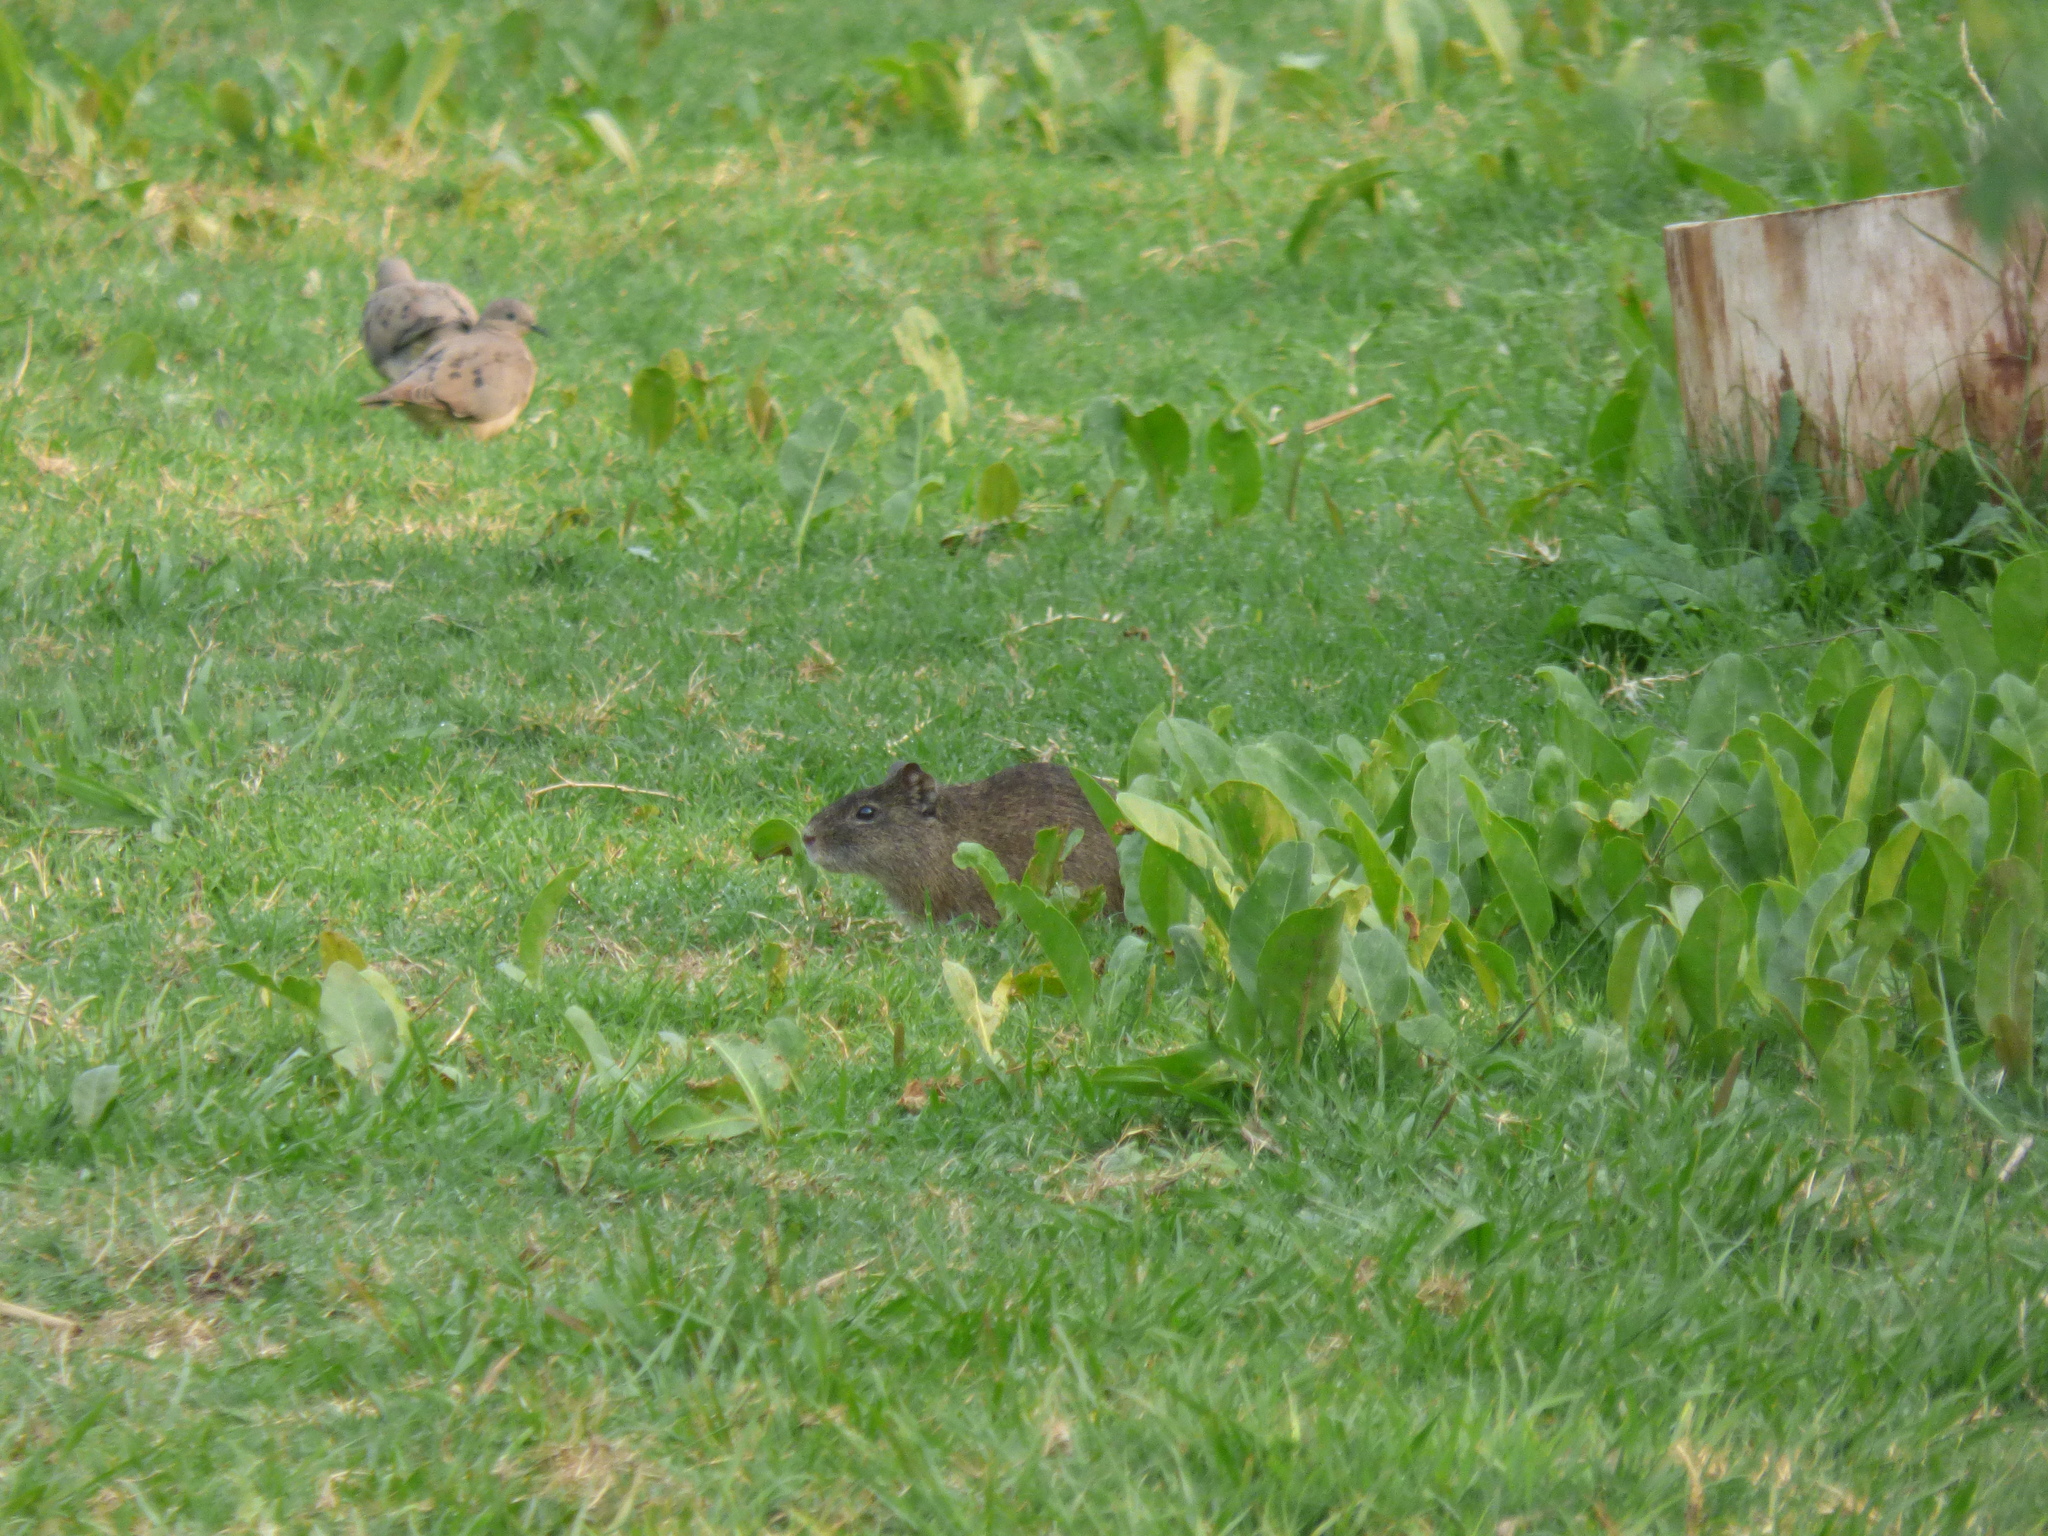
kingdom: Animalia
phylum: Chordata
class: Mammalia
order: Rodentia
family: Caviidae
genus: Cavia
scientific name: Cavia aperea
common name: Brazilian guinea pig
